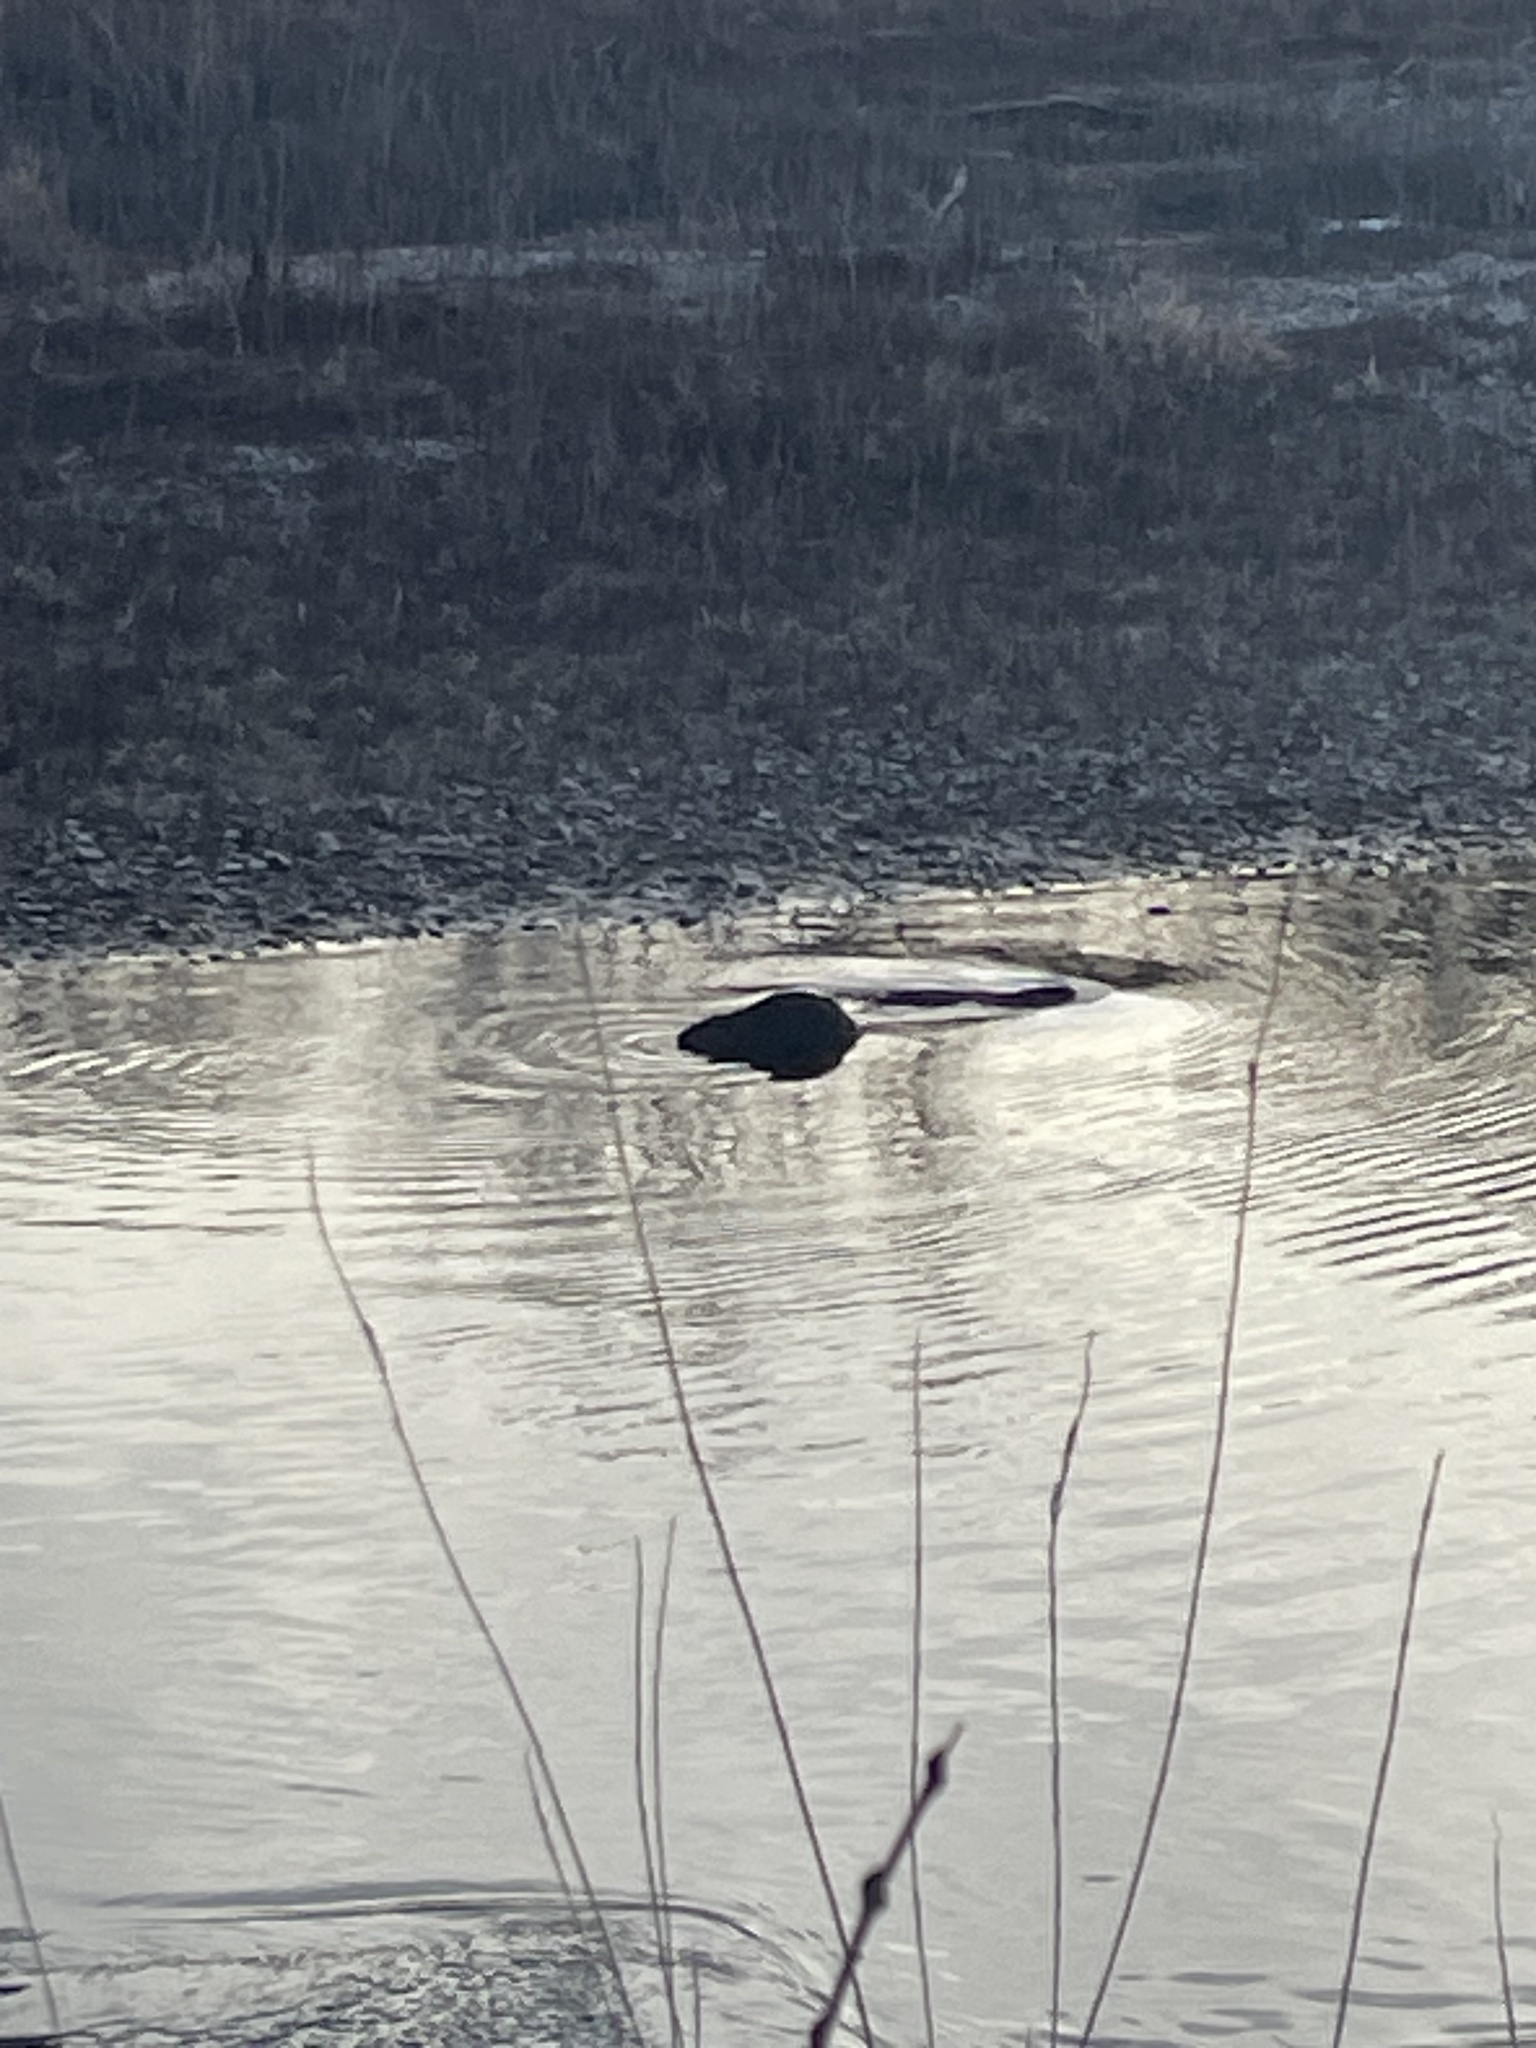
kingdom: Animalia
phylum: Chordata
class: Mammalia
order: Rodentia
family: Castoridae
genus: Castor
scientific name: Castor canadensis
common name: American beaver
